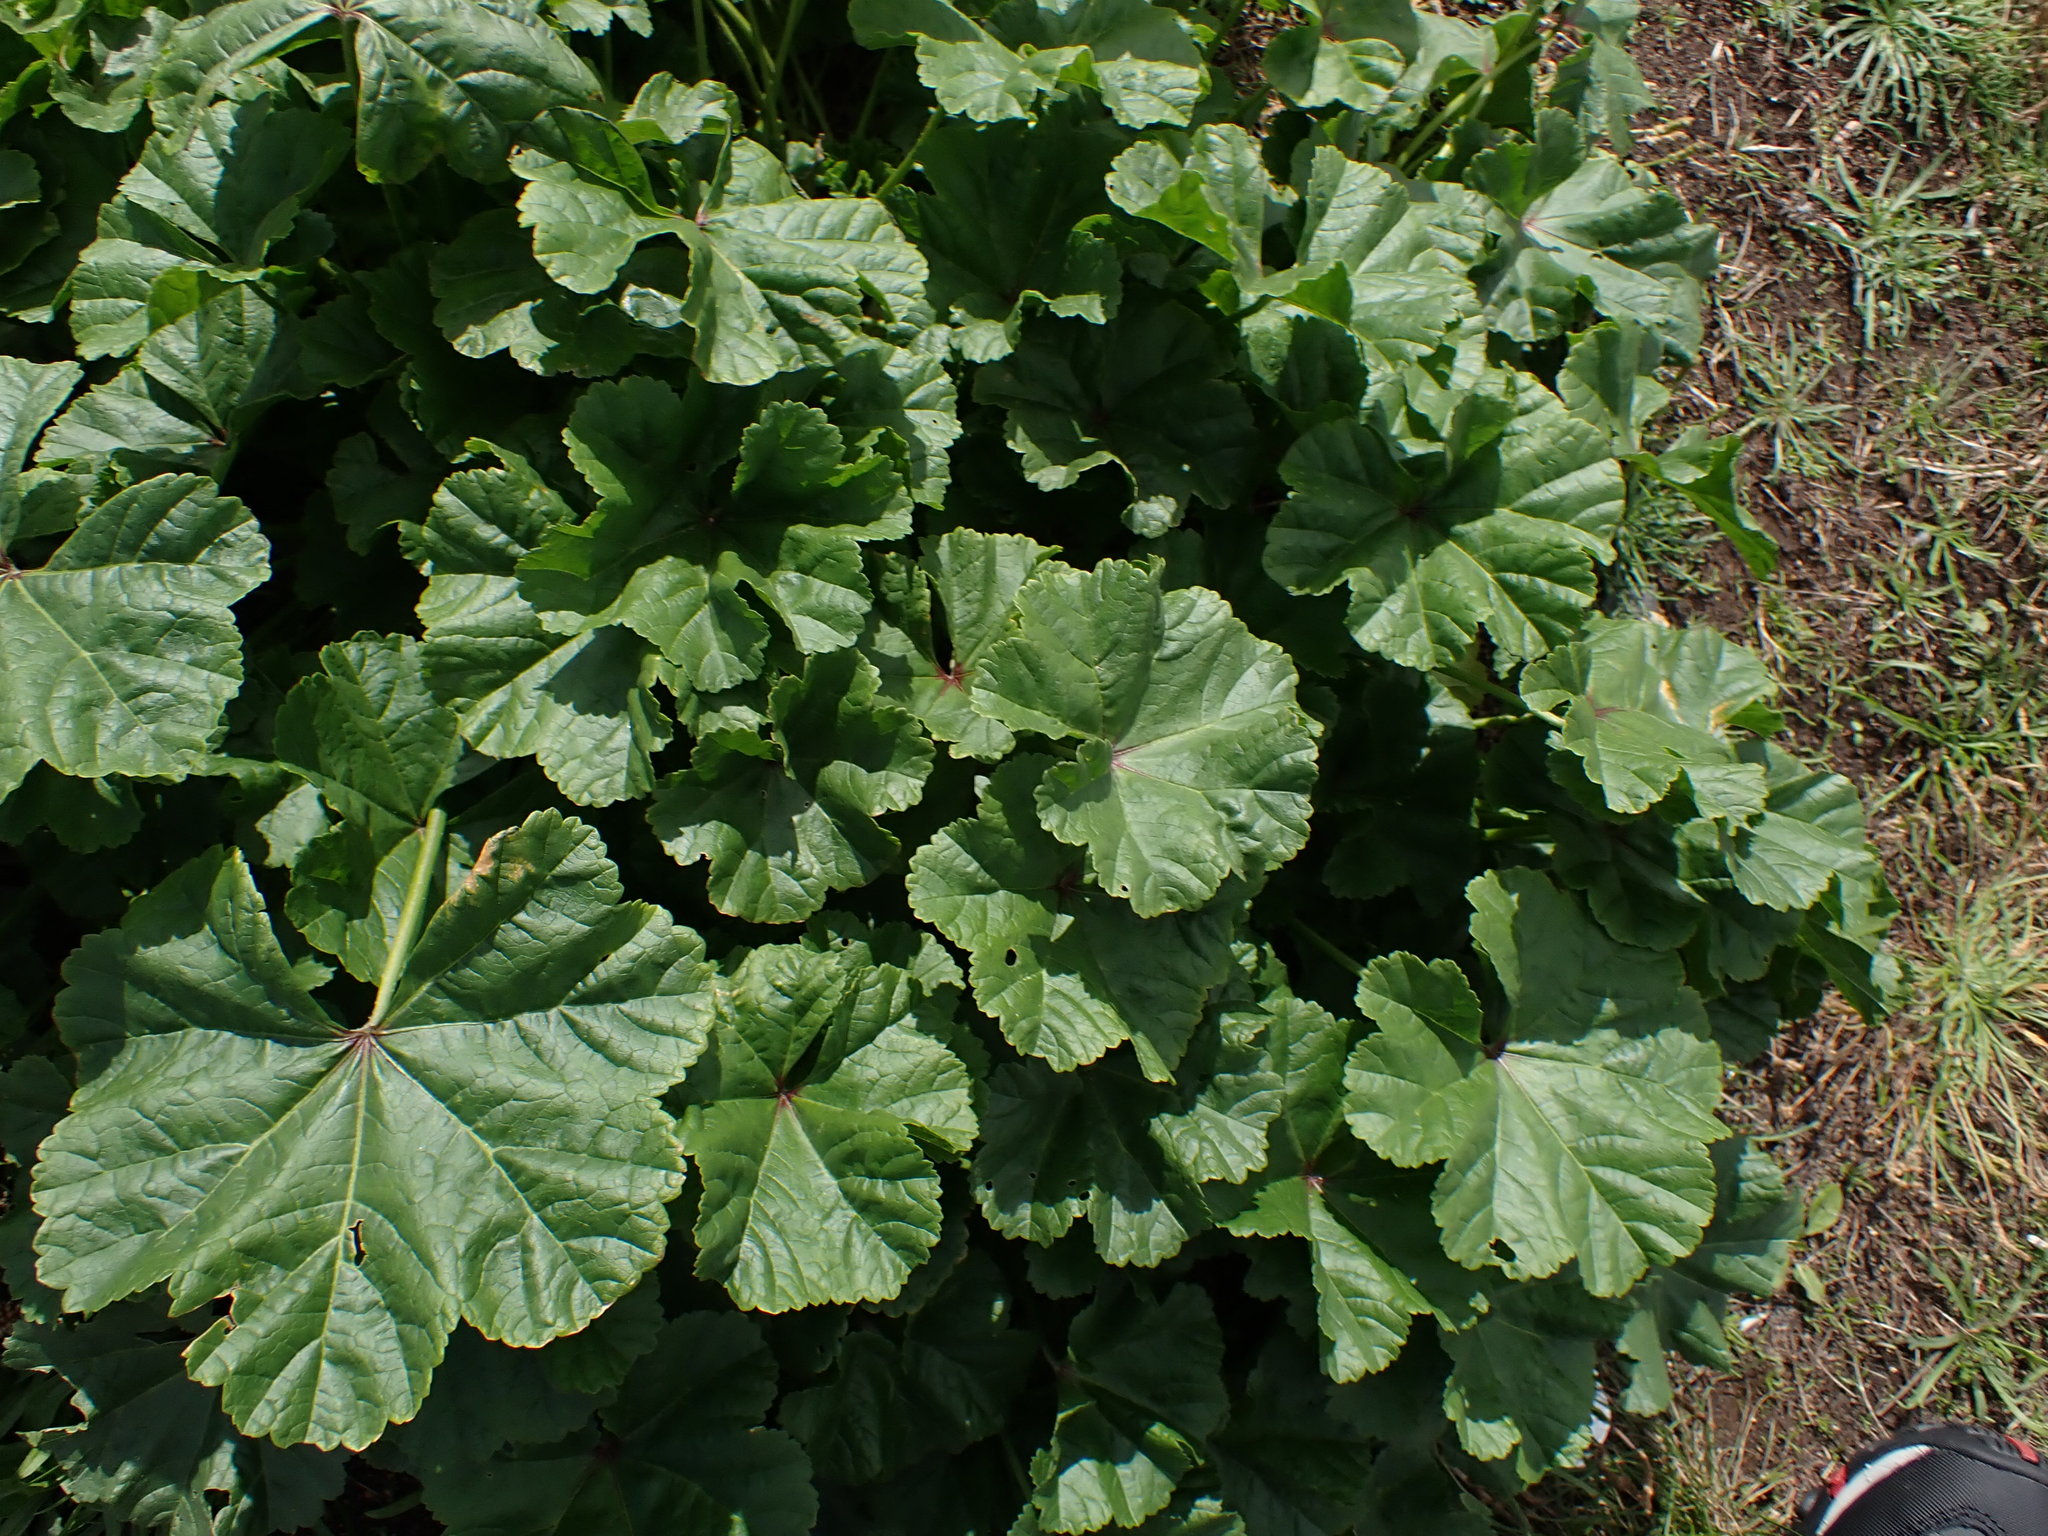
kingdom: Plantae
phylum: Tracheophyta
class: Magnoliopsida
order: Malvales
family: Malvaceae
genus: Malva
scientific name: Malva sylvestris
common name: Common mallow
